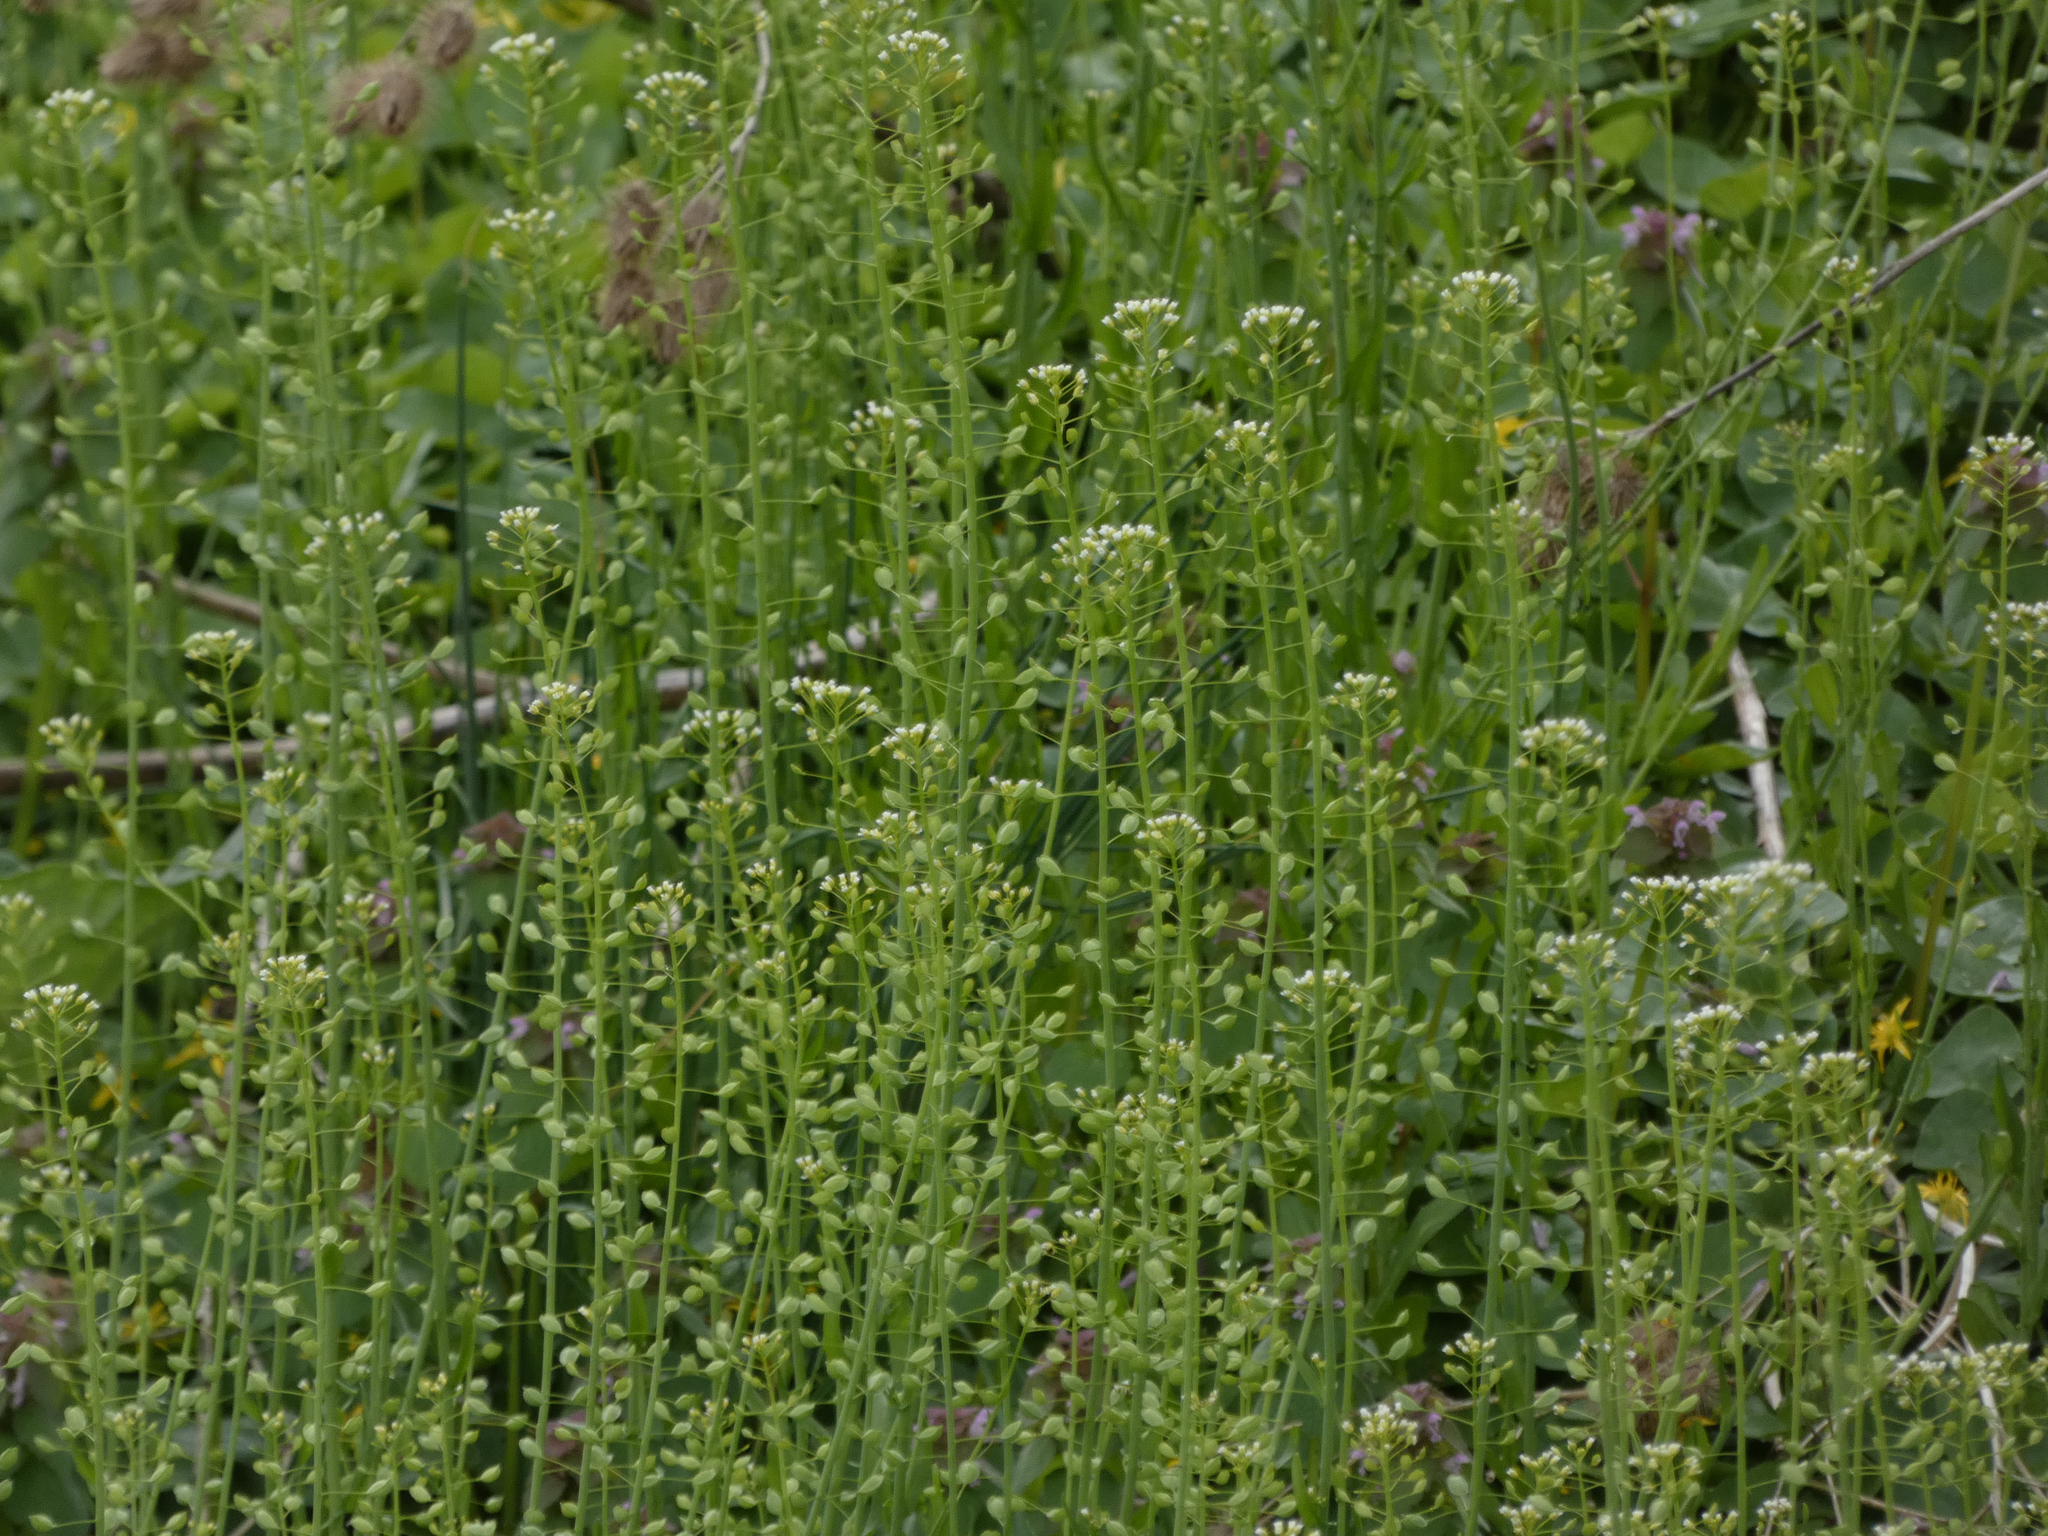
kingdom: Plantae
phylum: Tracheophyta
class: Magnoliopsida
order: Brassicales
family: Brassicaceae
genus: Mummenhoffia
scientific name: Mummenhoffia alliacea
